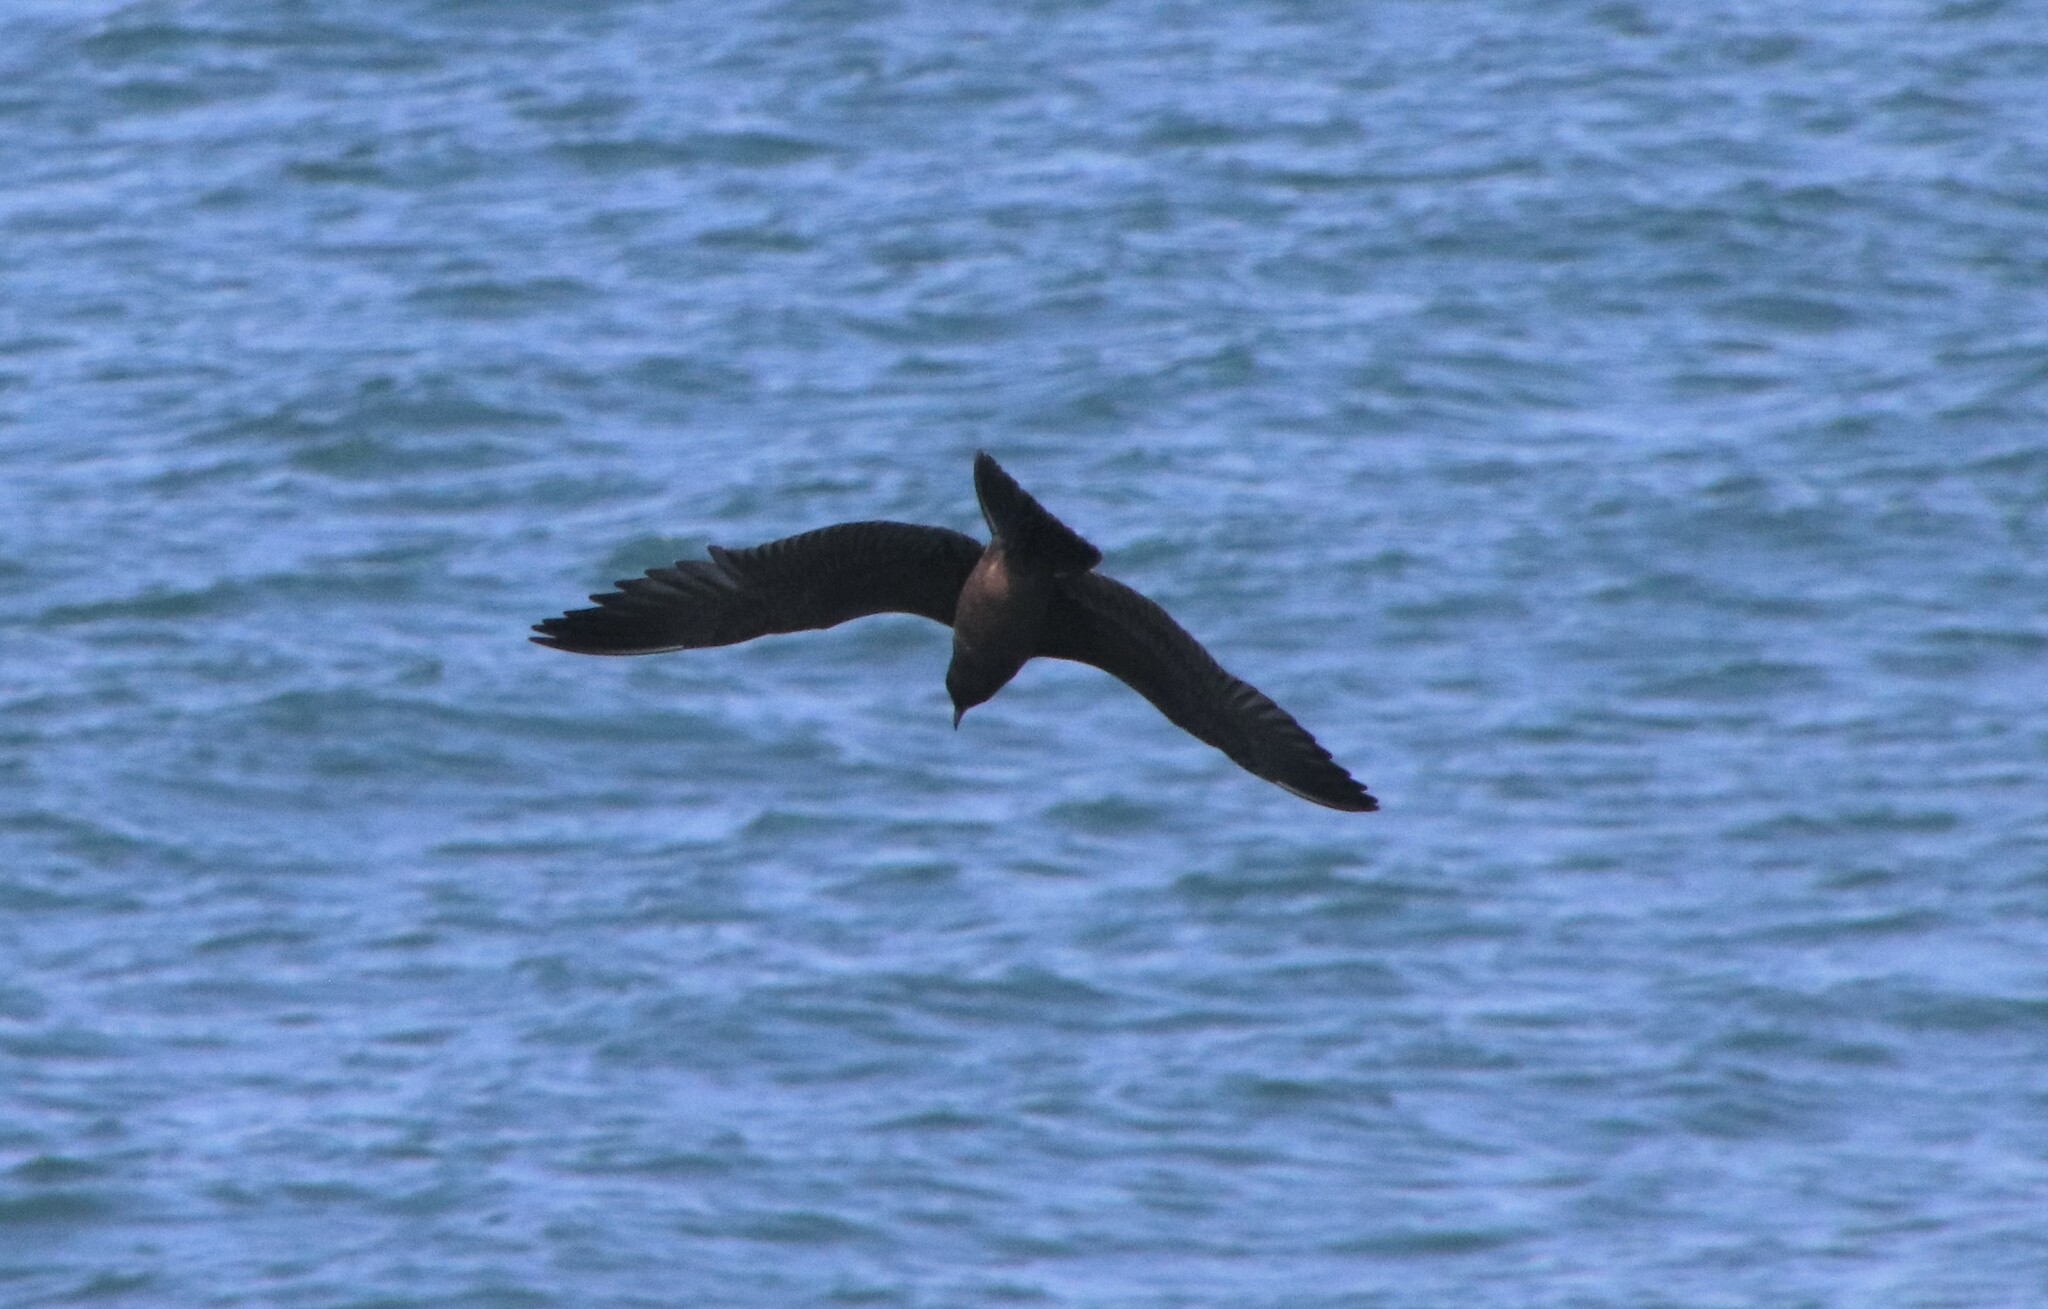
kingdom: Animalia
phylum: Chordata
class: Aves
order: Charadriiformes
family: Laridae
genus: Larus
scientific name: Larus heermanni
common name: Heermann's gull
